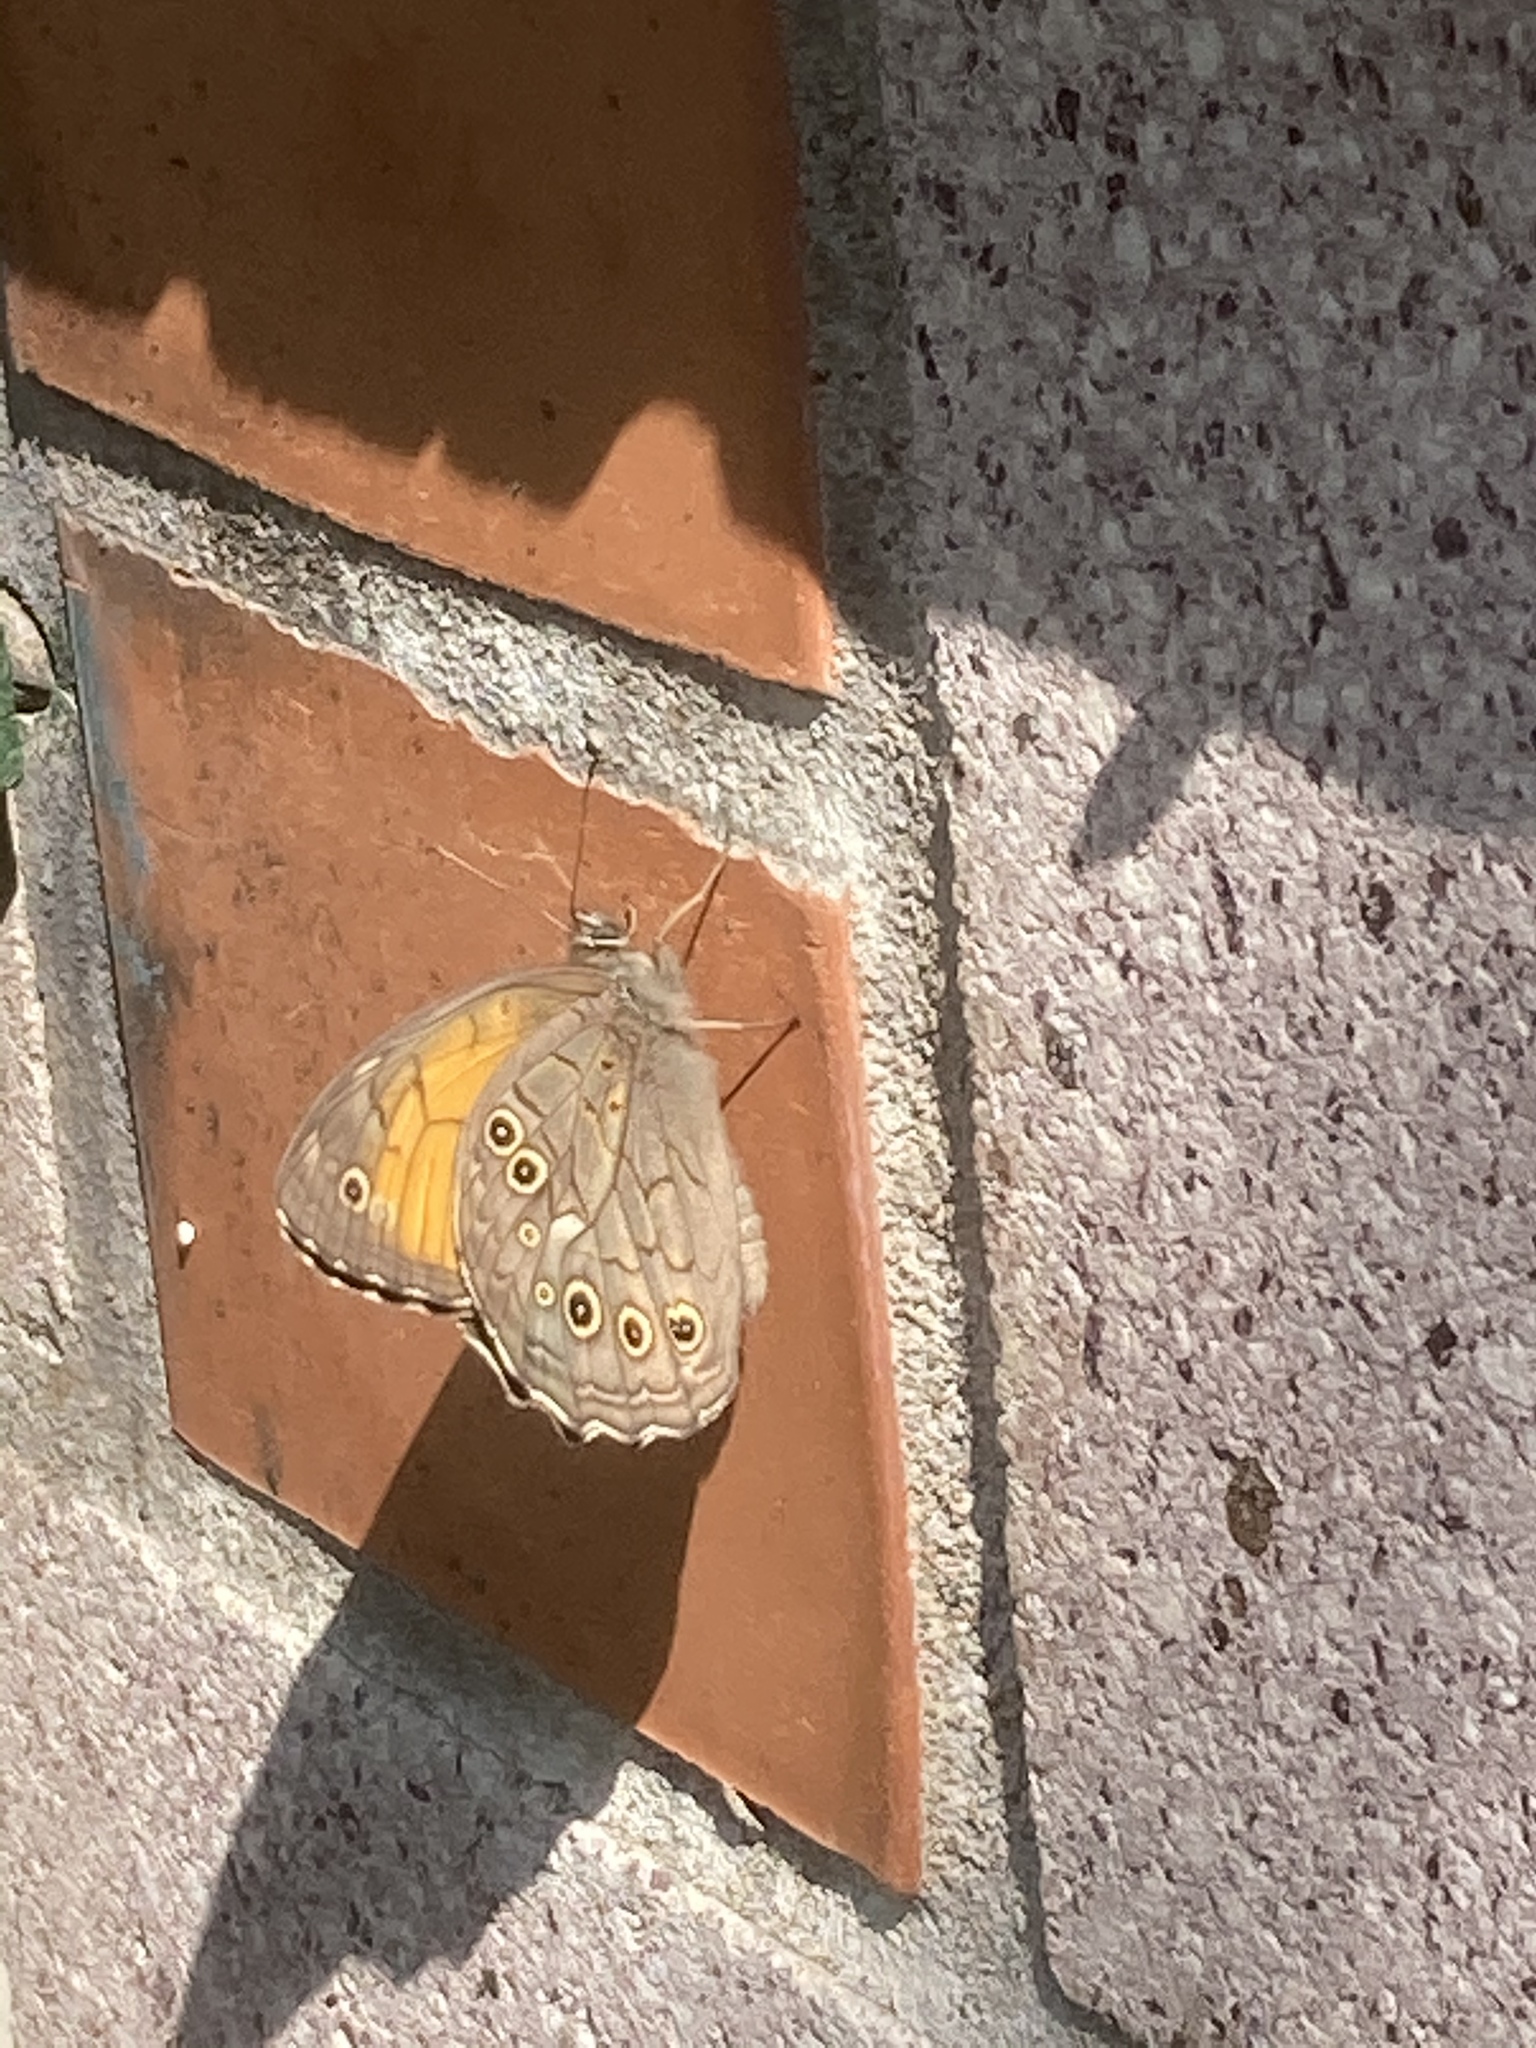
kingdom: Animalia
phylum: Arthropoda
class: Insecta
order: Lepidoptera
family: Nymphalidae
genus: Kirinia
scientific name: Kirinia roxelana
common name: Lattice brown
